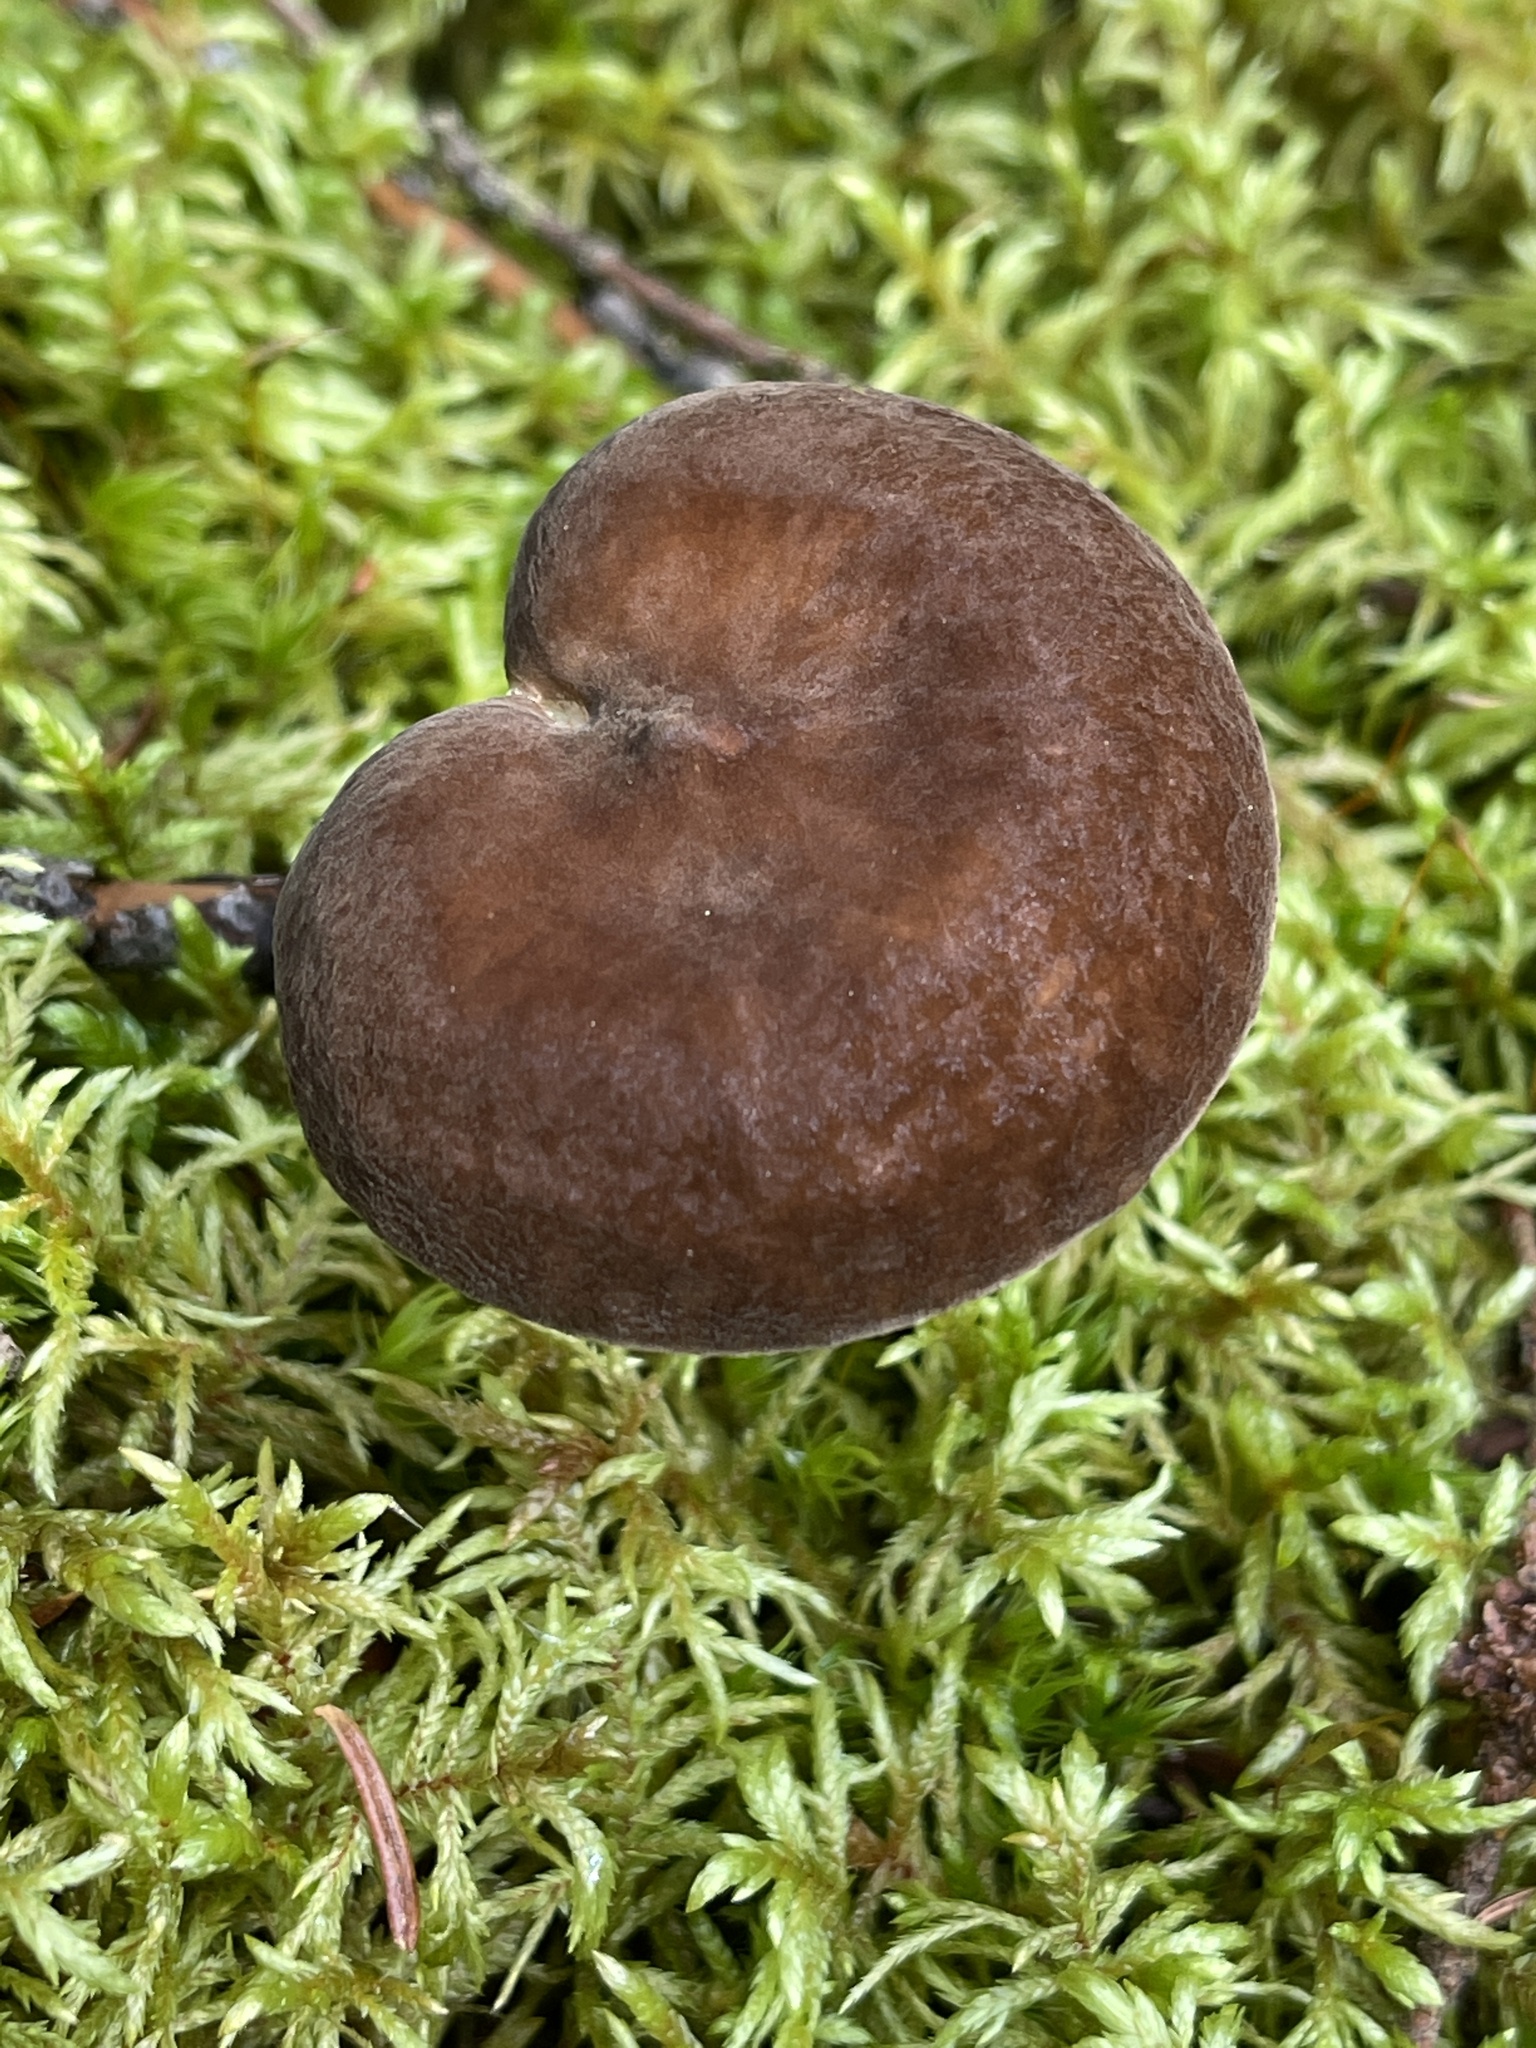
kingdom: Fungi
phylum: Basidiomycota
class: Agaricomycetes
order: Russulales
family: Russulaceae
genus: Lactarius
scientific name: Lactarius lignyotus
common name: Velvet milkcap
